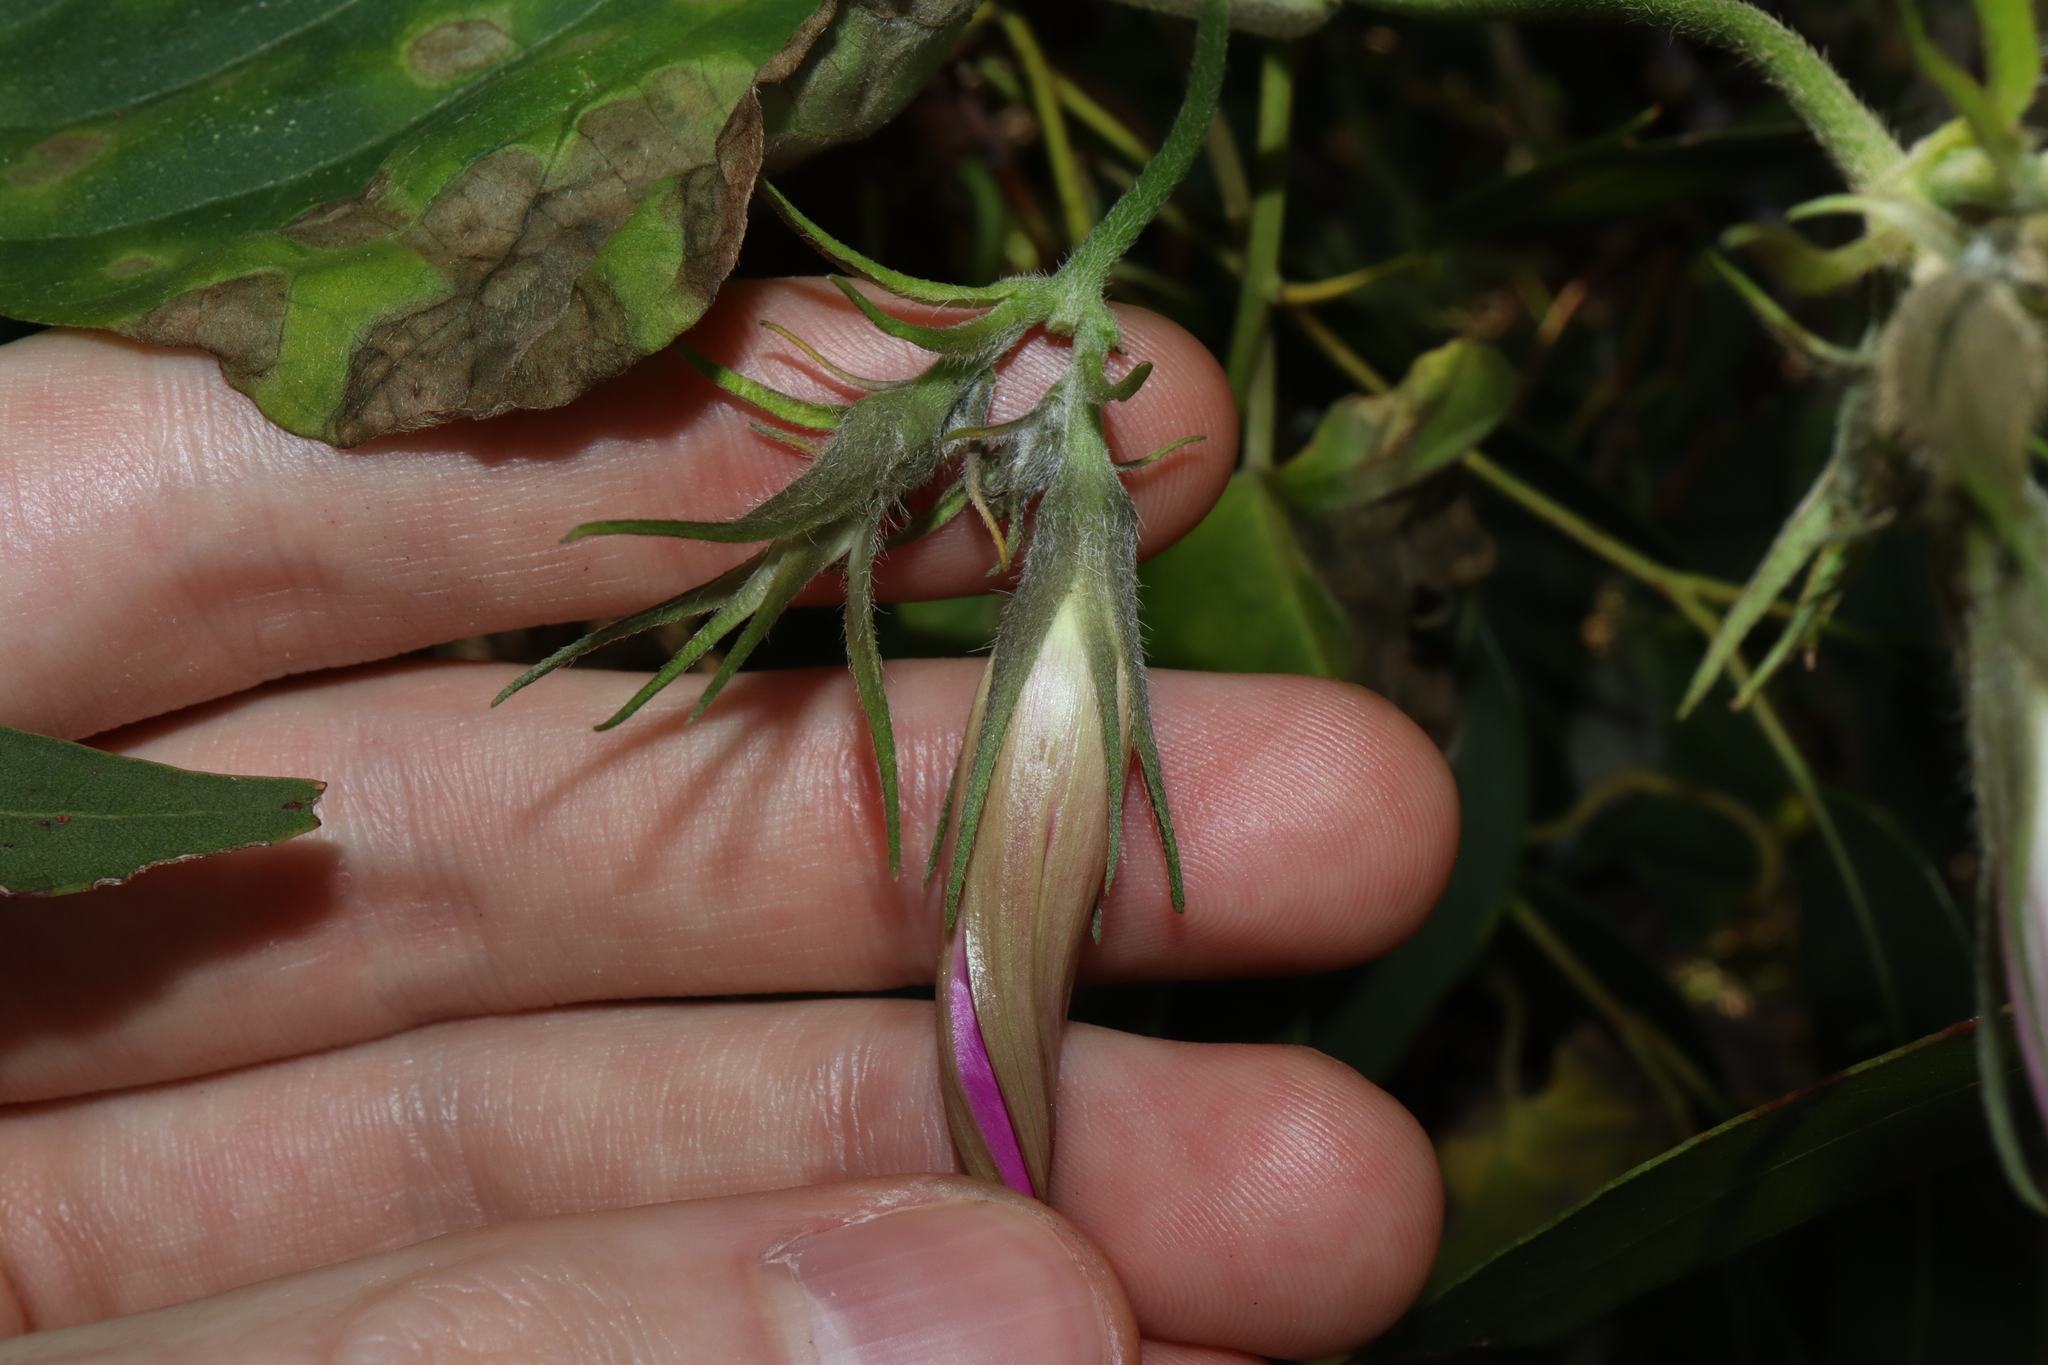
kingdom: Plantae
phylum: Tracheophyta
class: Magnoliopsida
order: Solanales
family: Convolvulaceae
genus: Ipomoea
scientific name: Ipomoea indica
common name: Blue dawnflower
